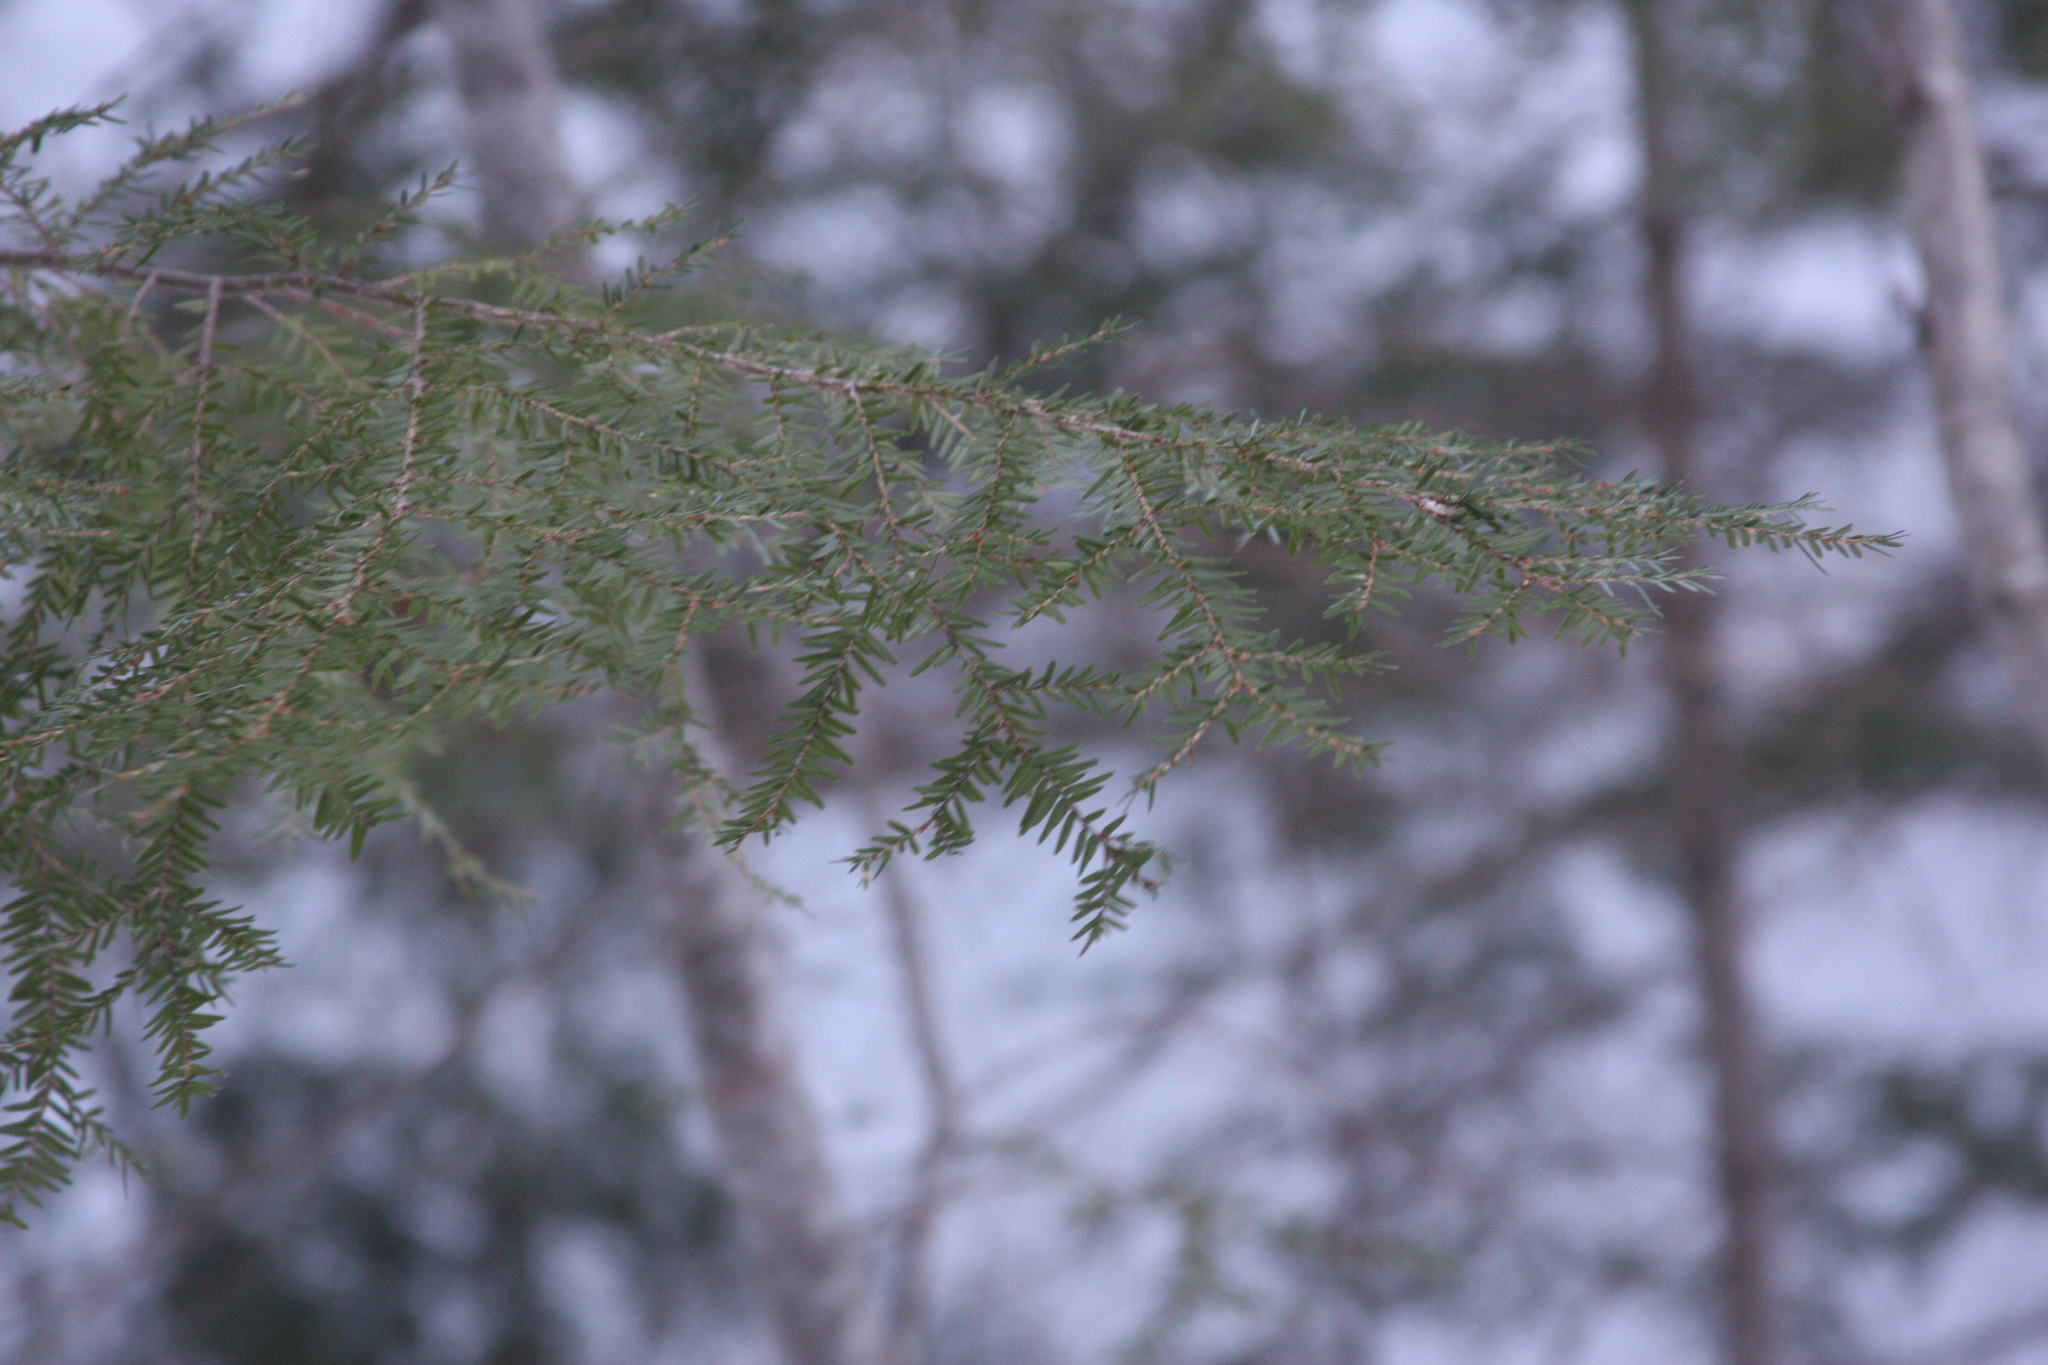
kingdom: Plantae
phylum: Tracheophyta
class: Pinopsida
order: Pinales
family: Pinaceae
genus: Tsuga
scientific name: Tsuga canadensis
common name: Eastern hemlock
